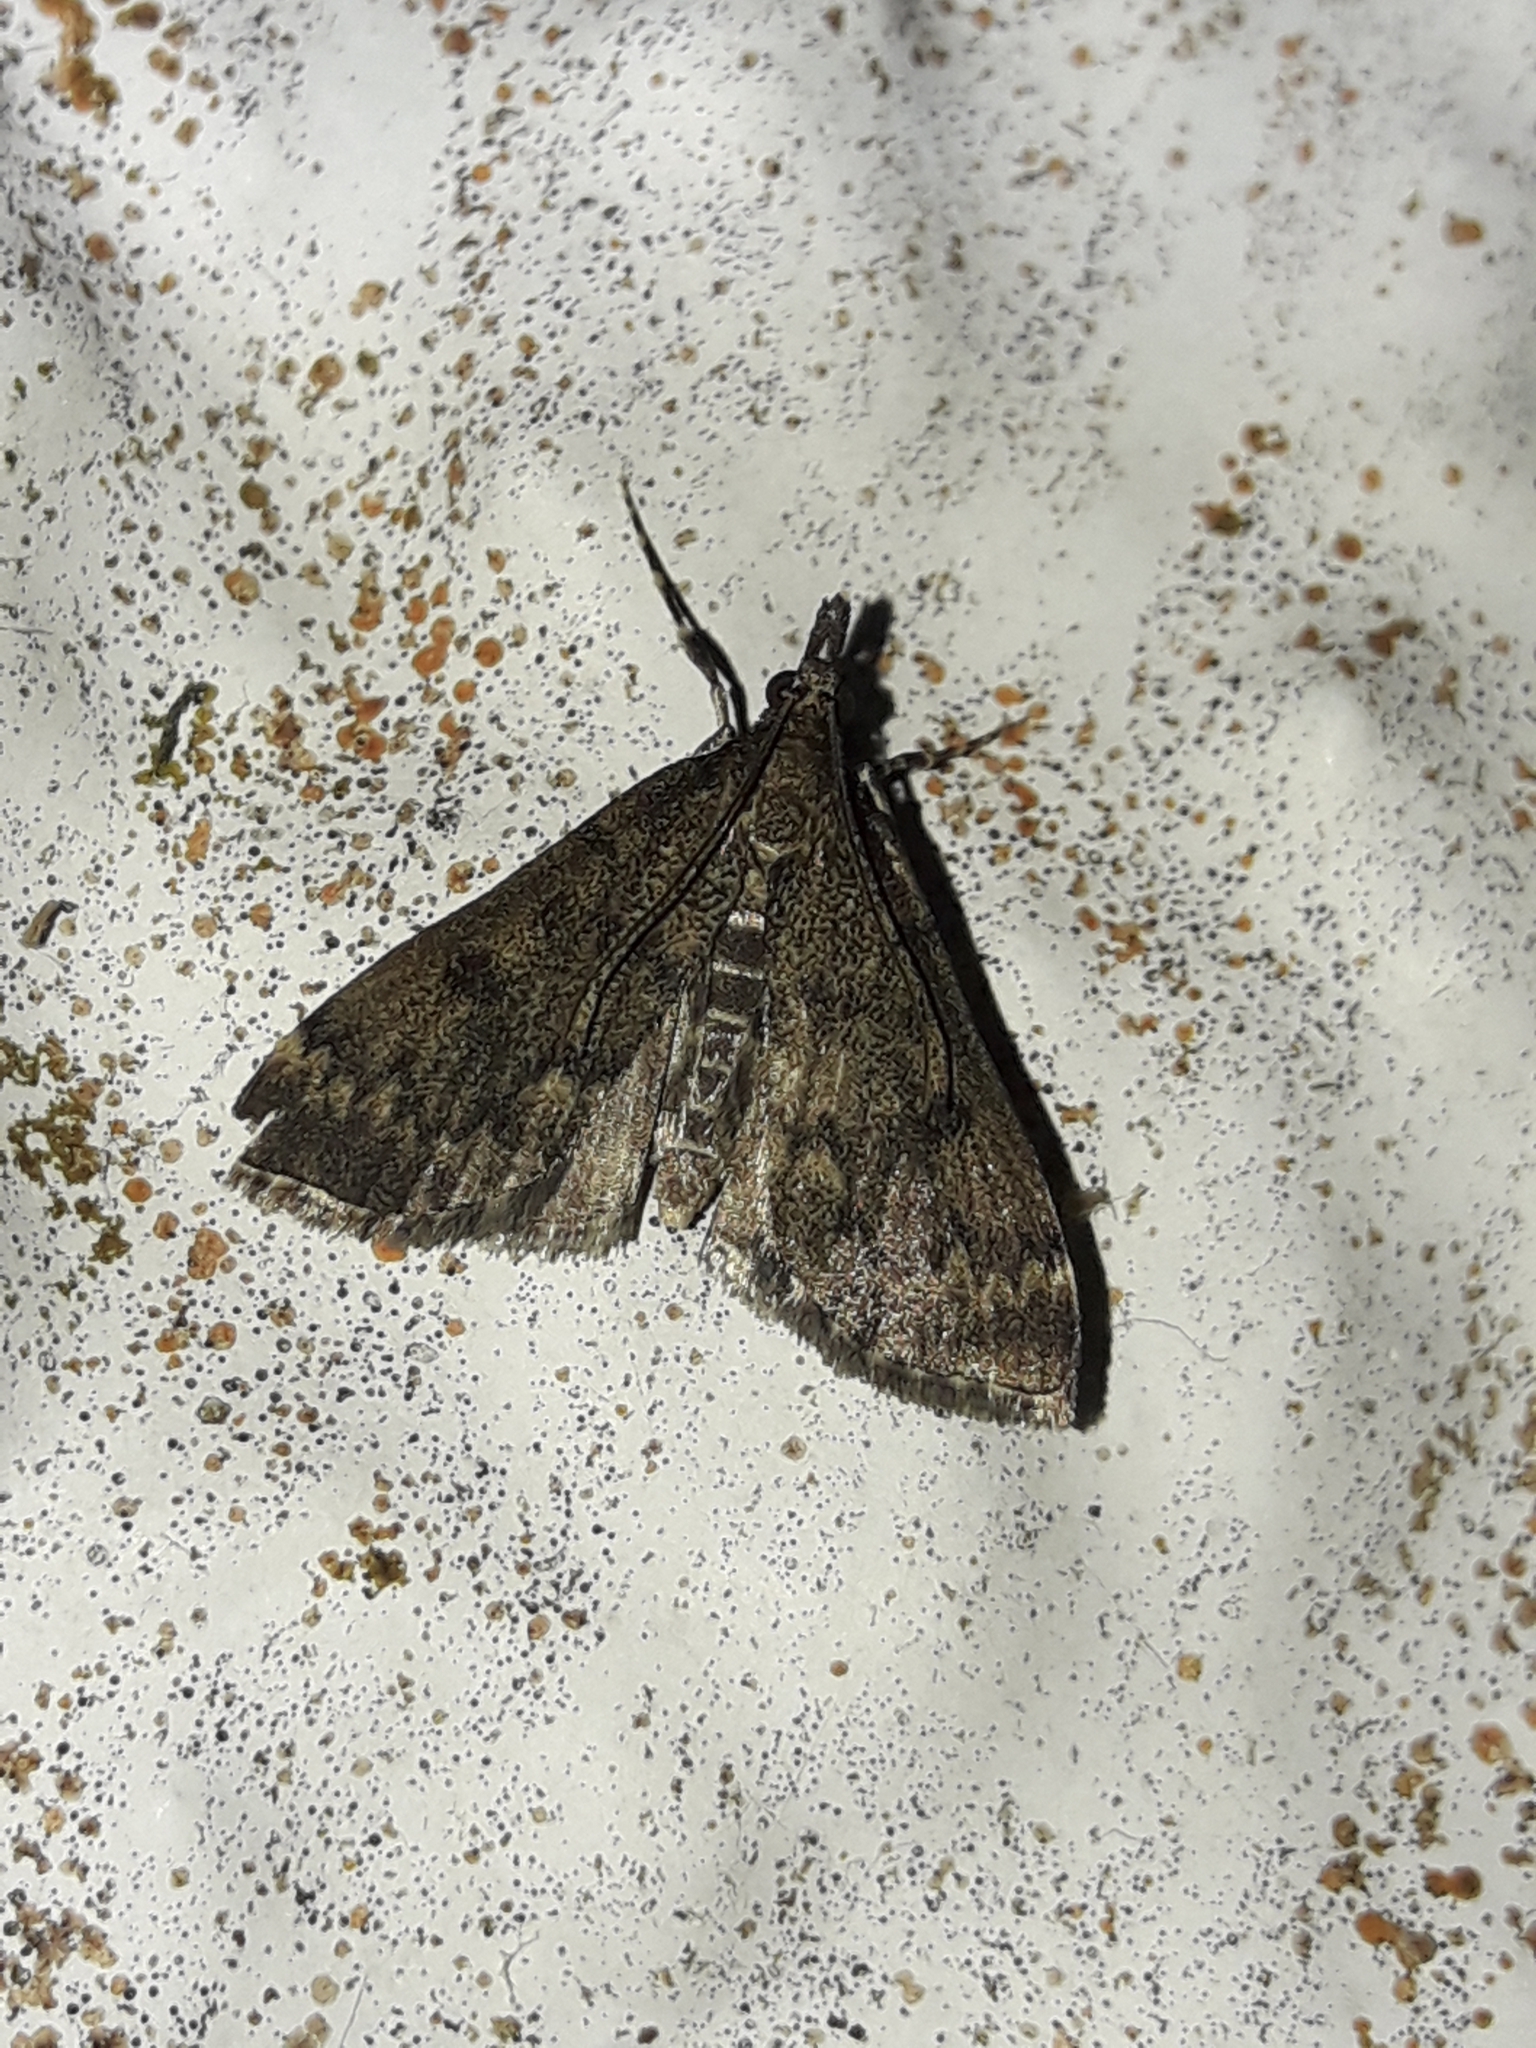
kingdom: Animalia
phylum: Arthropoda
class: Insecta
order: Lepidoptera
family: Crambidae
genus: Loxostege
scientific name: Loxostege Proternia philocapna
